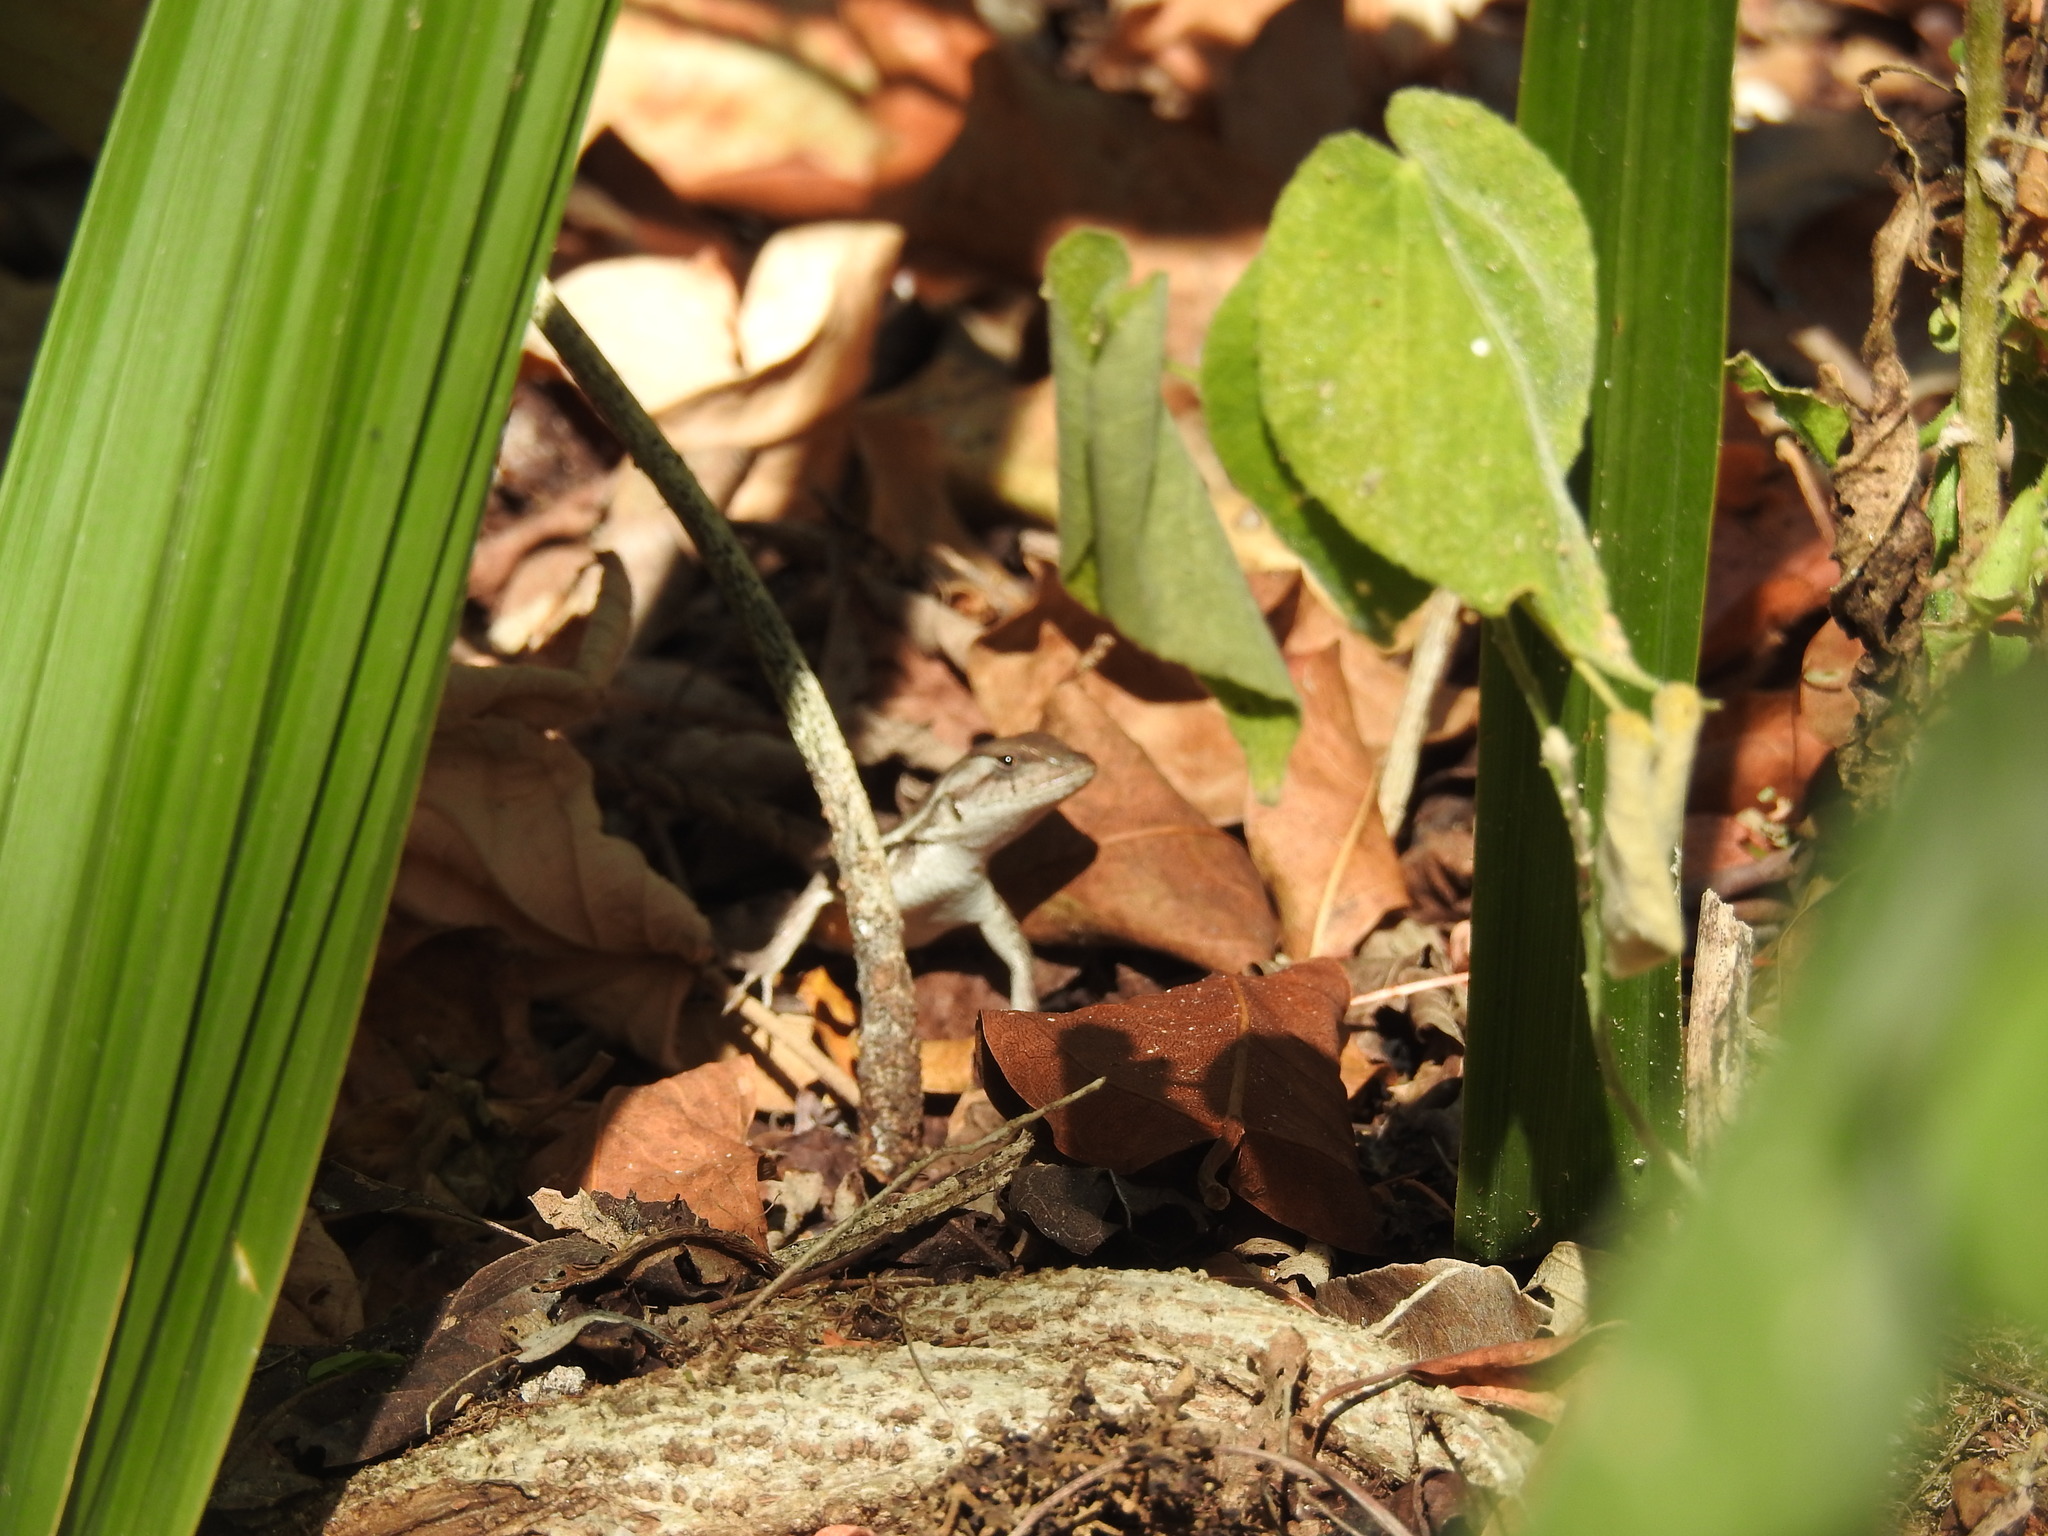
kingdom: Animalia
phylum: Chordata
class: Squamata
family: Phrynosomatidae
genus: Sceloporus
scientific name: Sceloporus chrysostictus
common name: Yellow-spotted spiny lizard
